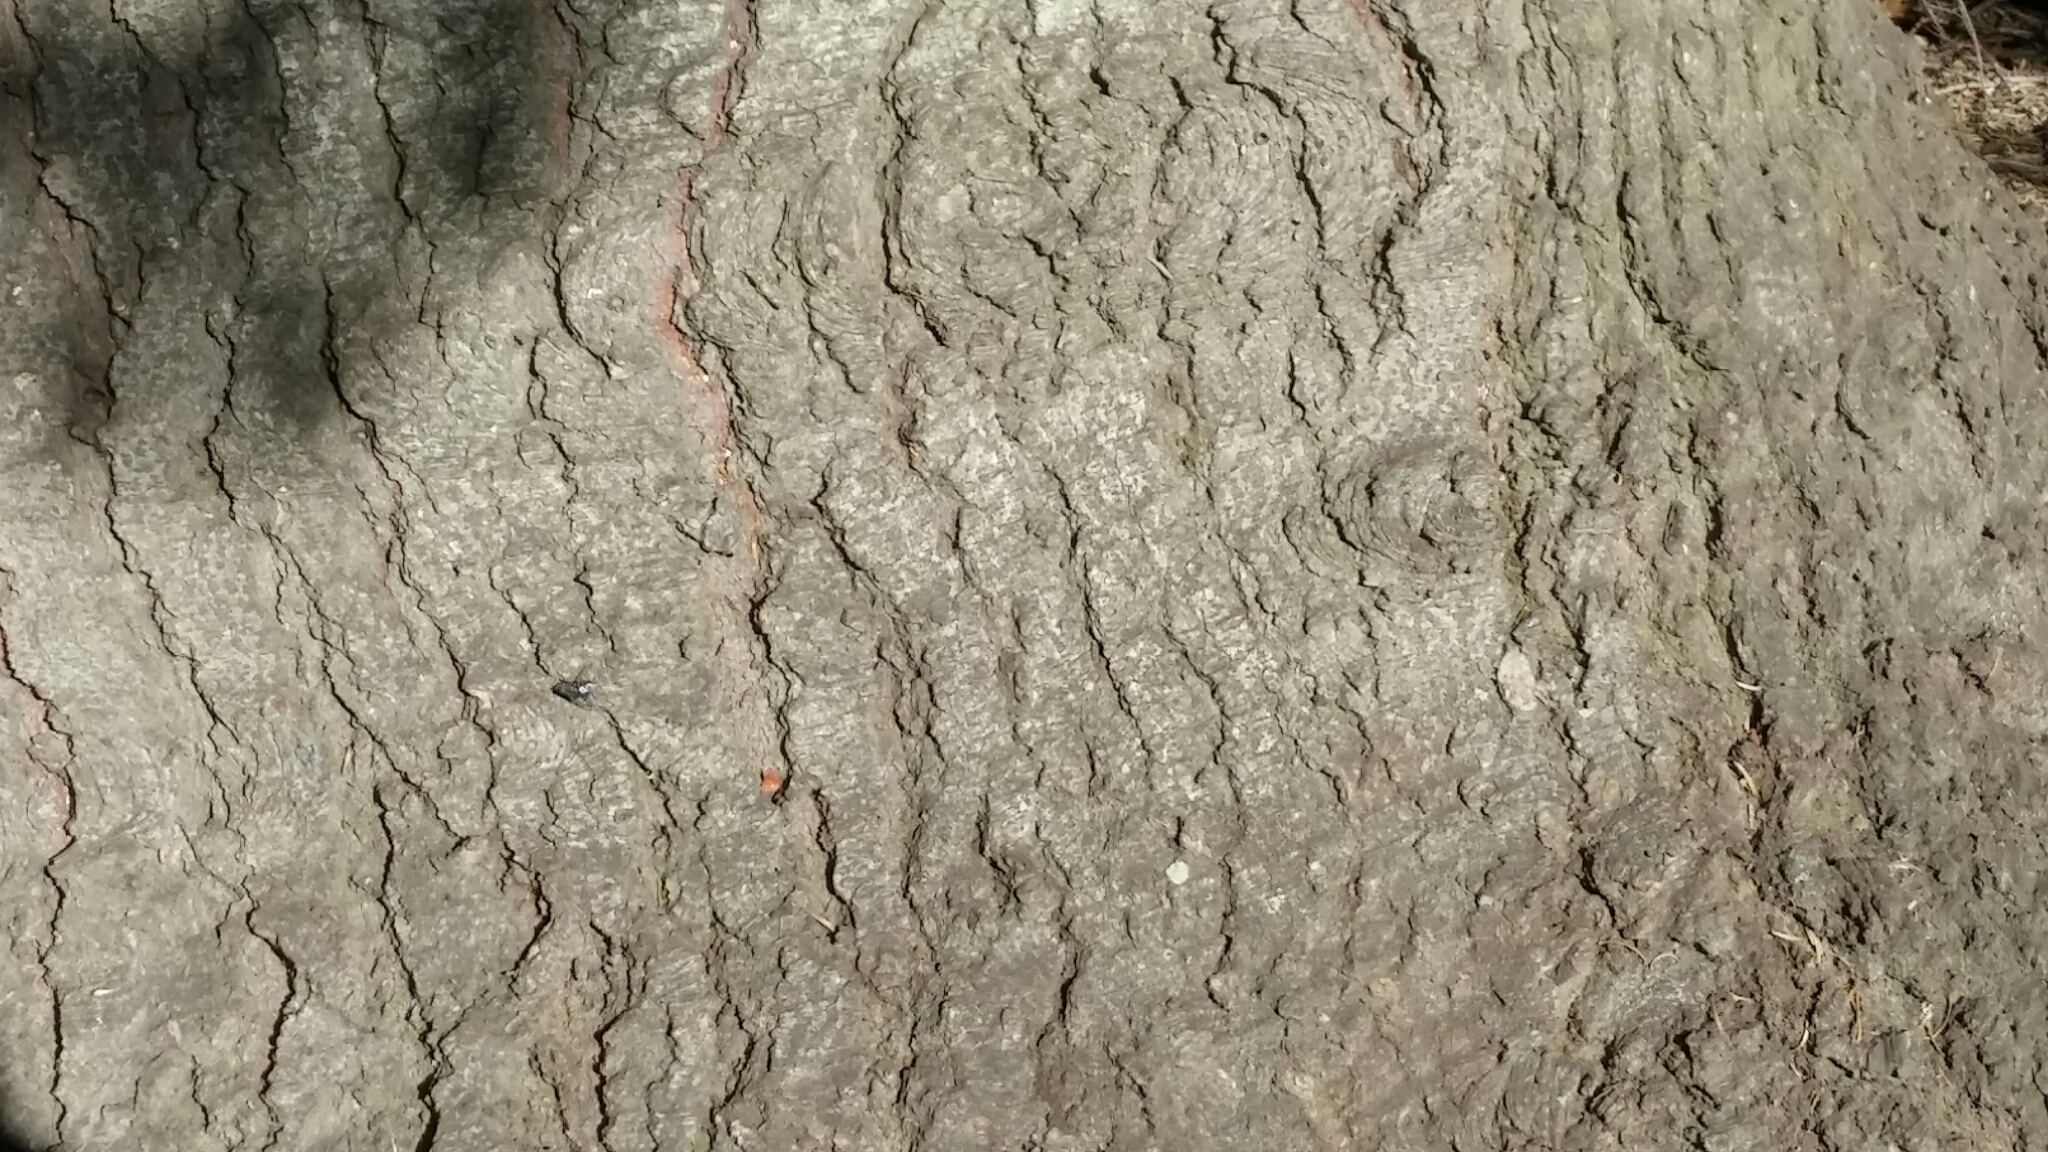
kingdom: Plantae
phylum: Tracheophyta
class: Pinopsida
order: Pinales
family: Pinaceae
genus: Abies
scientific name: Abies grandis
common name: Giant fir
